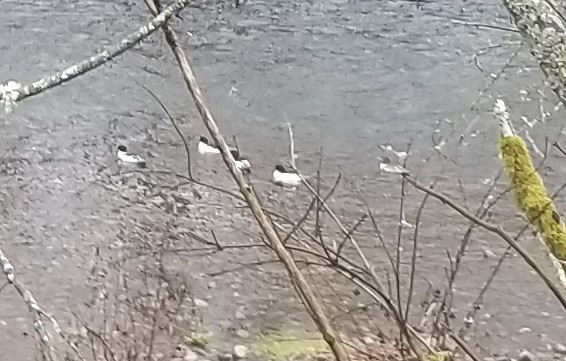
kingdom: Animalia
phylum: Chordata
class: Aves
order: Anseriformes
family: Anatidae
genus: Mergus
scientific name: Mergus merganser
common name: Common merganser
